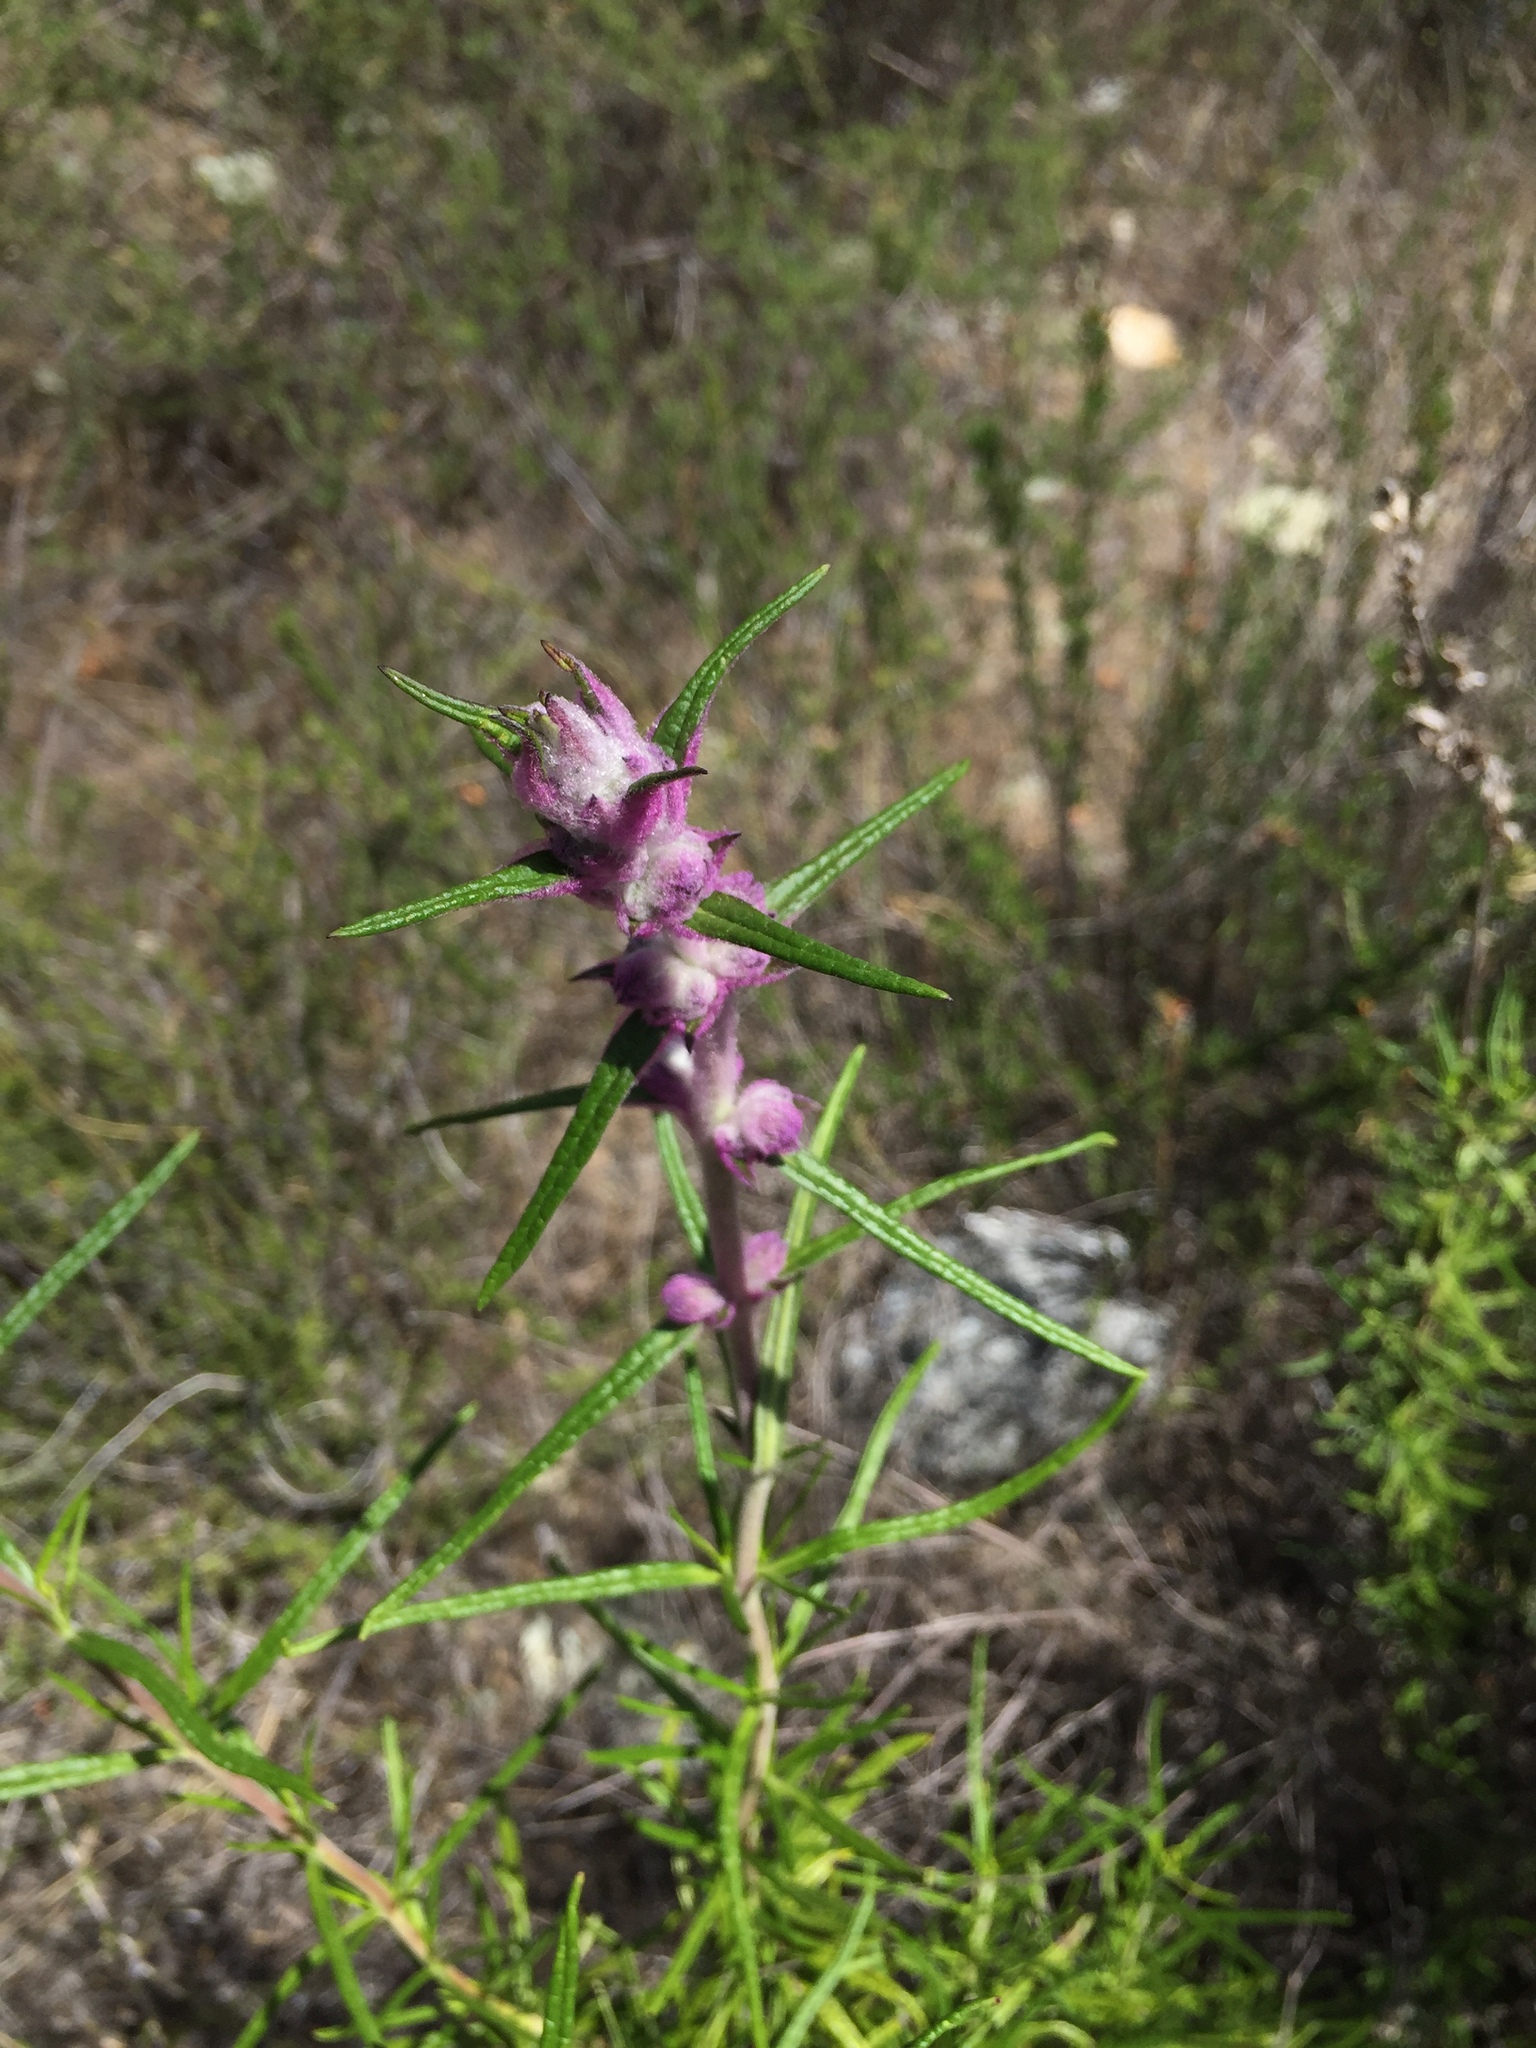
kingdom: Plantae
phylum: Tracheophyta
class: Magnoliopsida
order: Lamiales
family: Lamiaceae
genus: Trichostema
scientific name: Trichostema lanatum
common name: Woolly bluecurls
